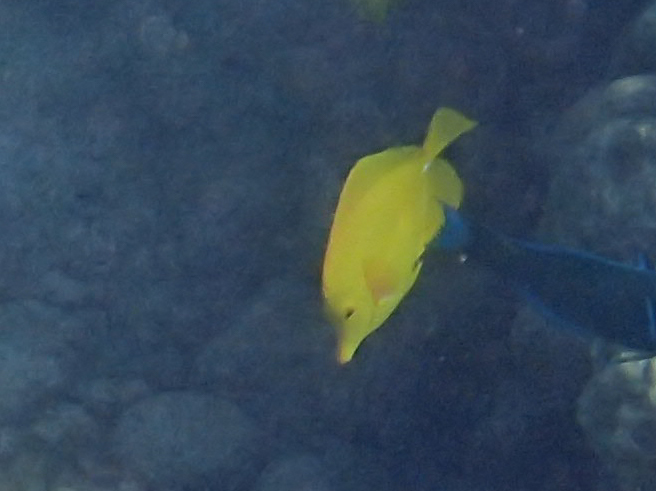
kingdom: Animalia
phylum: Chordata
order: Perciformes
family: Acanthuridae
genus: Zebrasoma
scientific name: Zebrasoma flavescens
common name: Yellow tang
